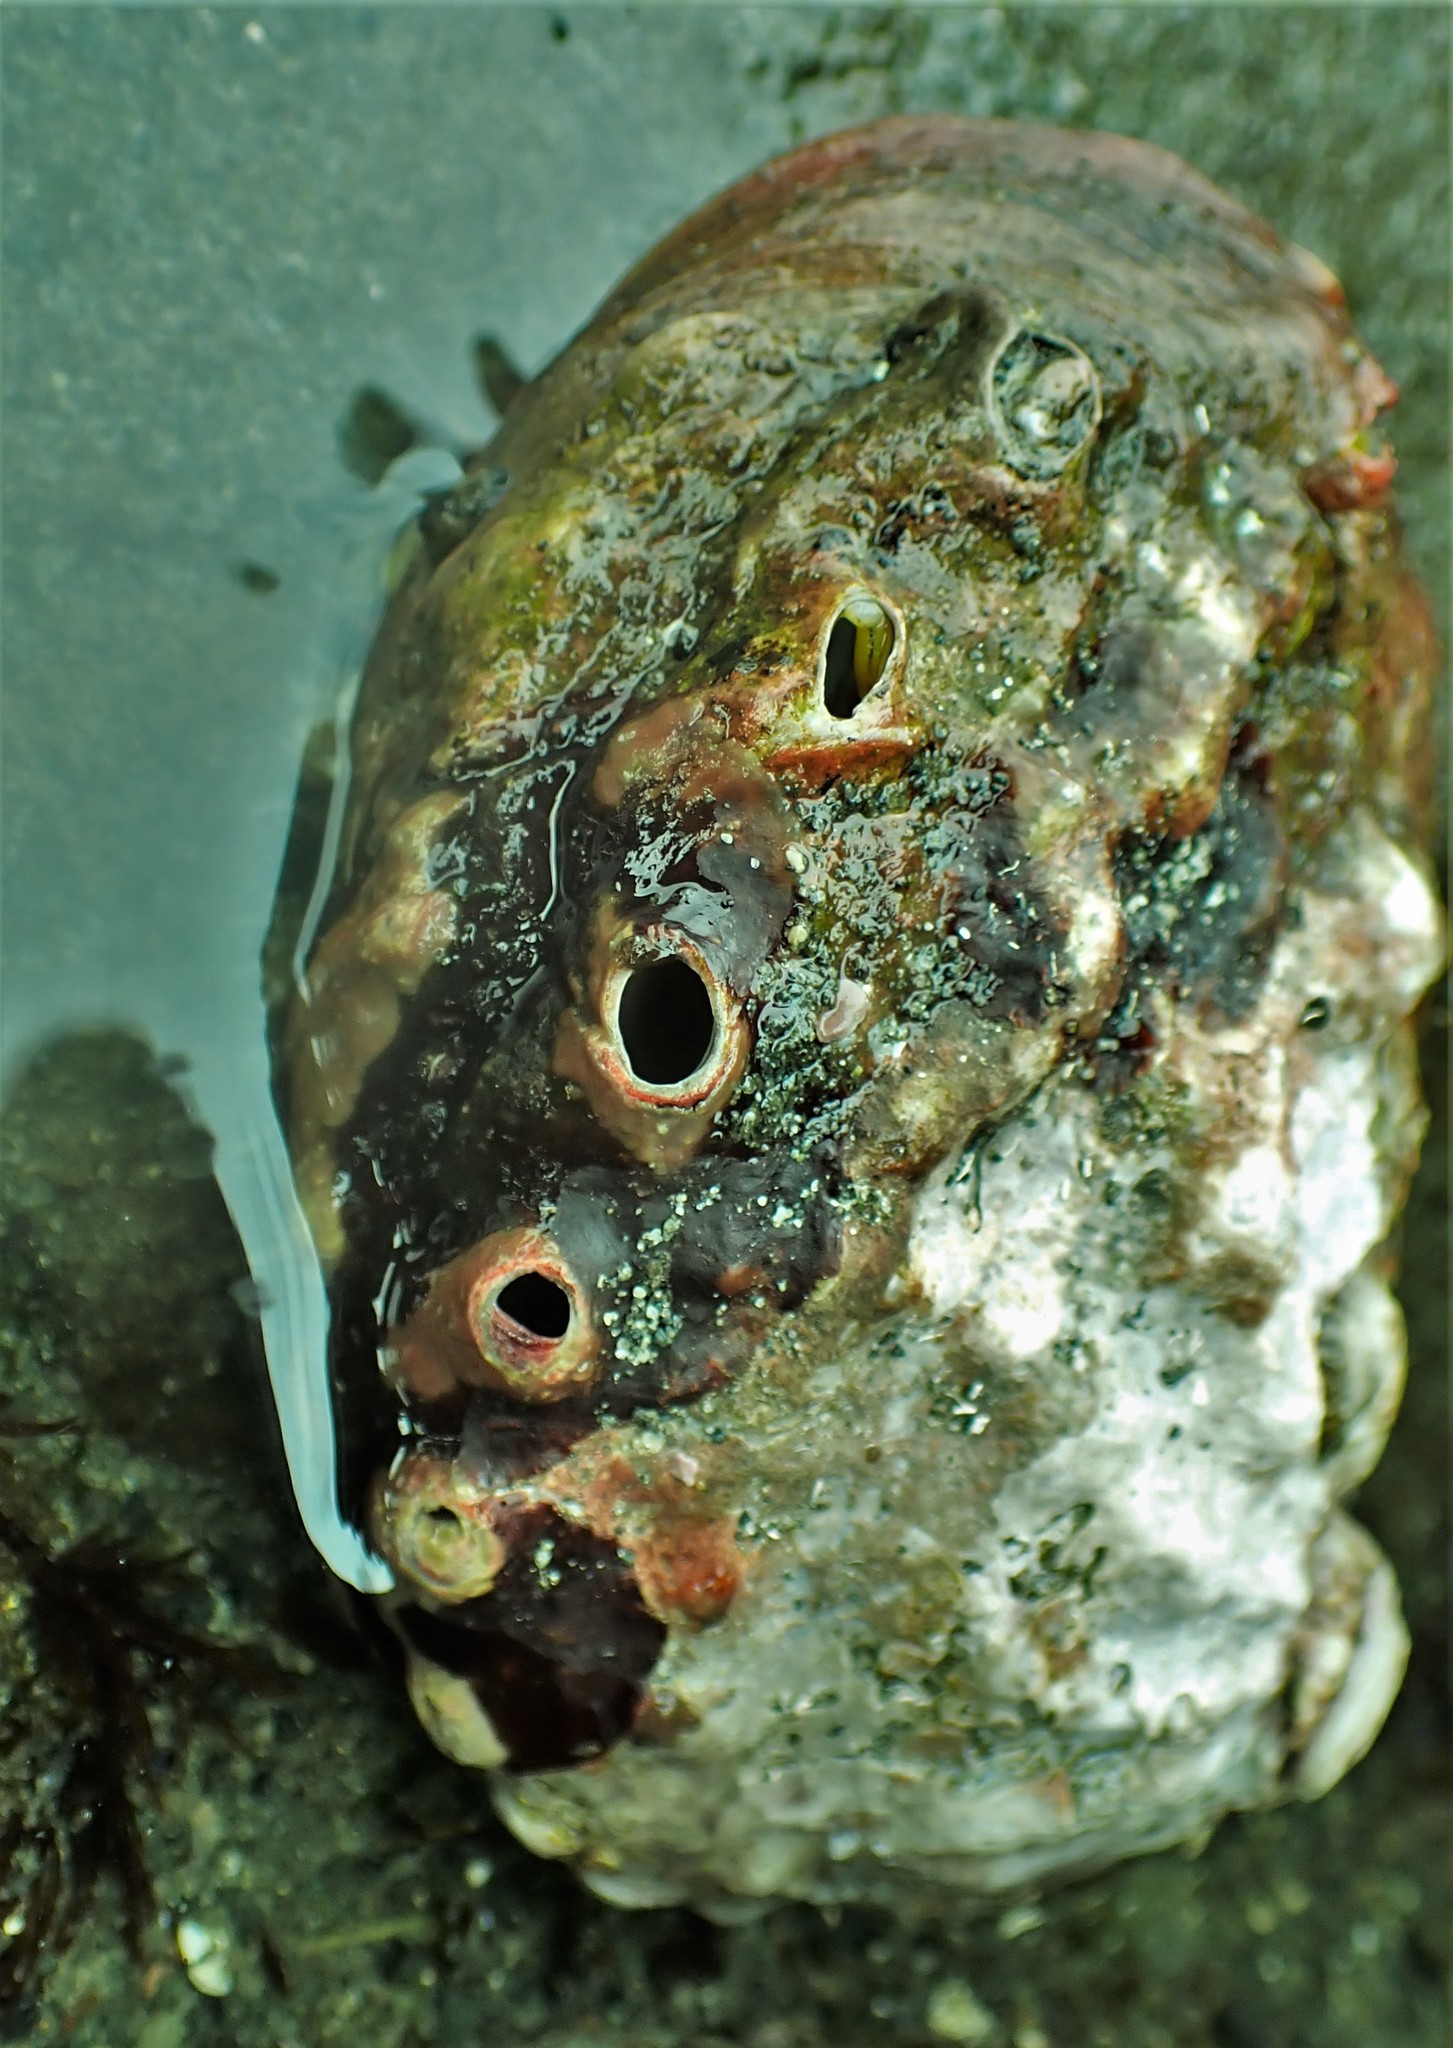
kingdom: Animalia
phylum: Mollusca
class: Gastropoda
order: Lepetellida
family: Haliotidae
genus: Haliotis
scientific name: Haliotis kamtschatkana
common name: Pinto abalone
